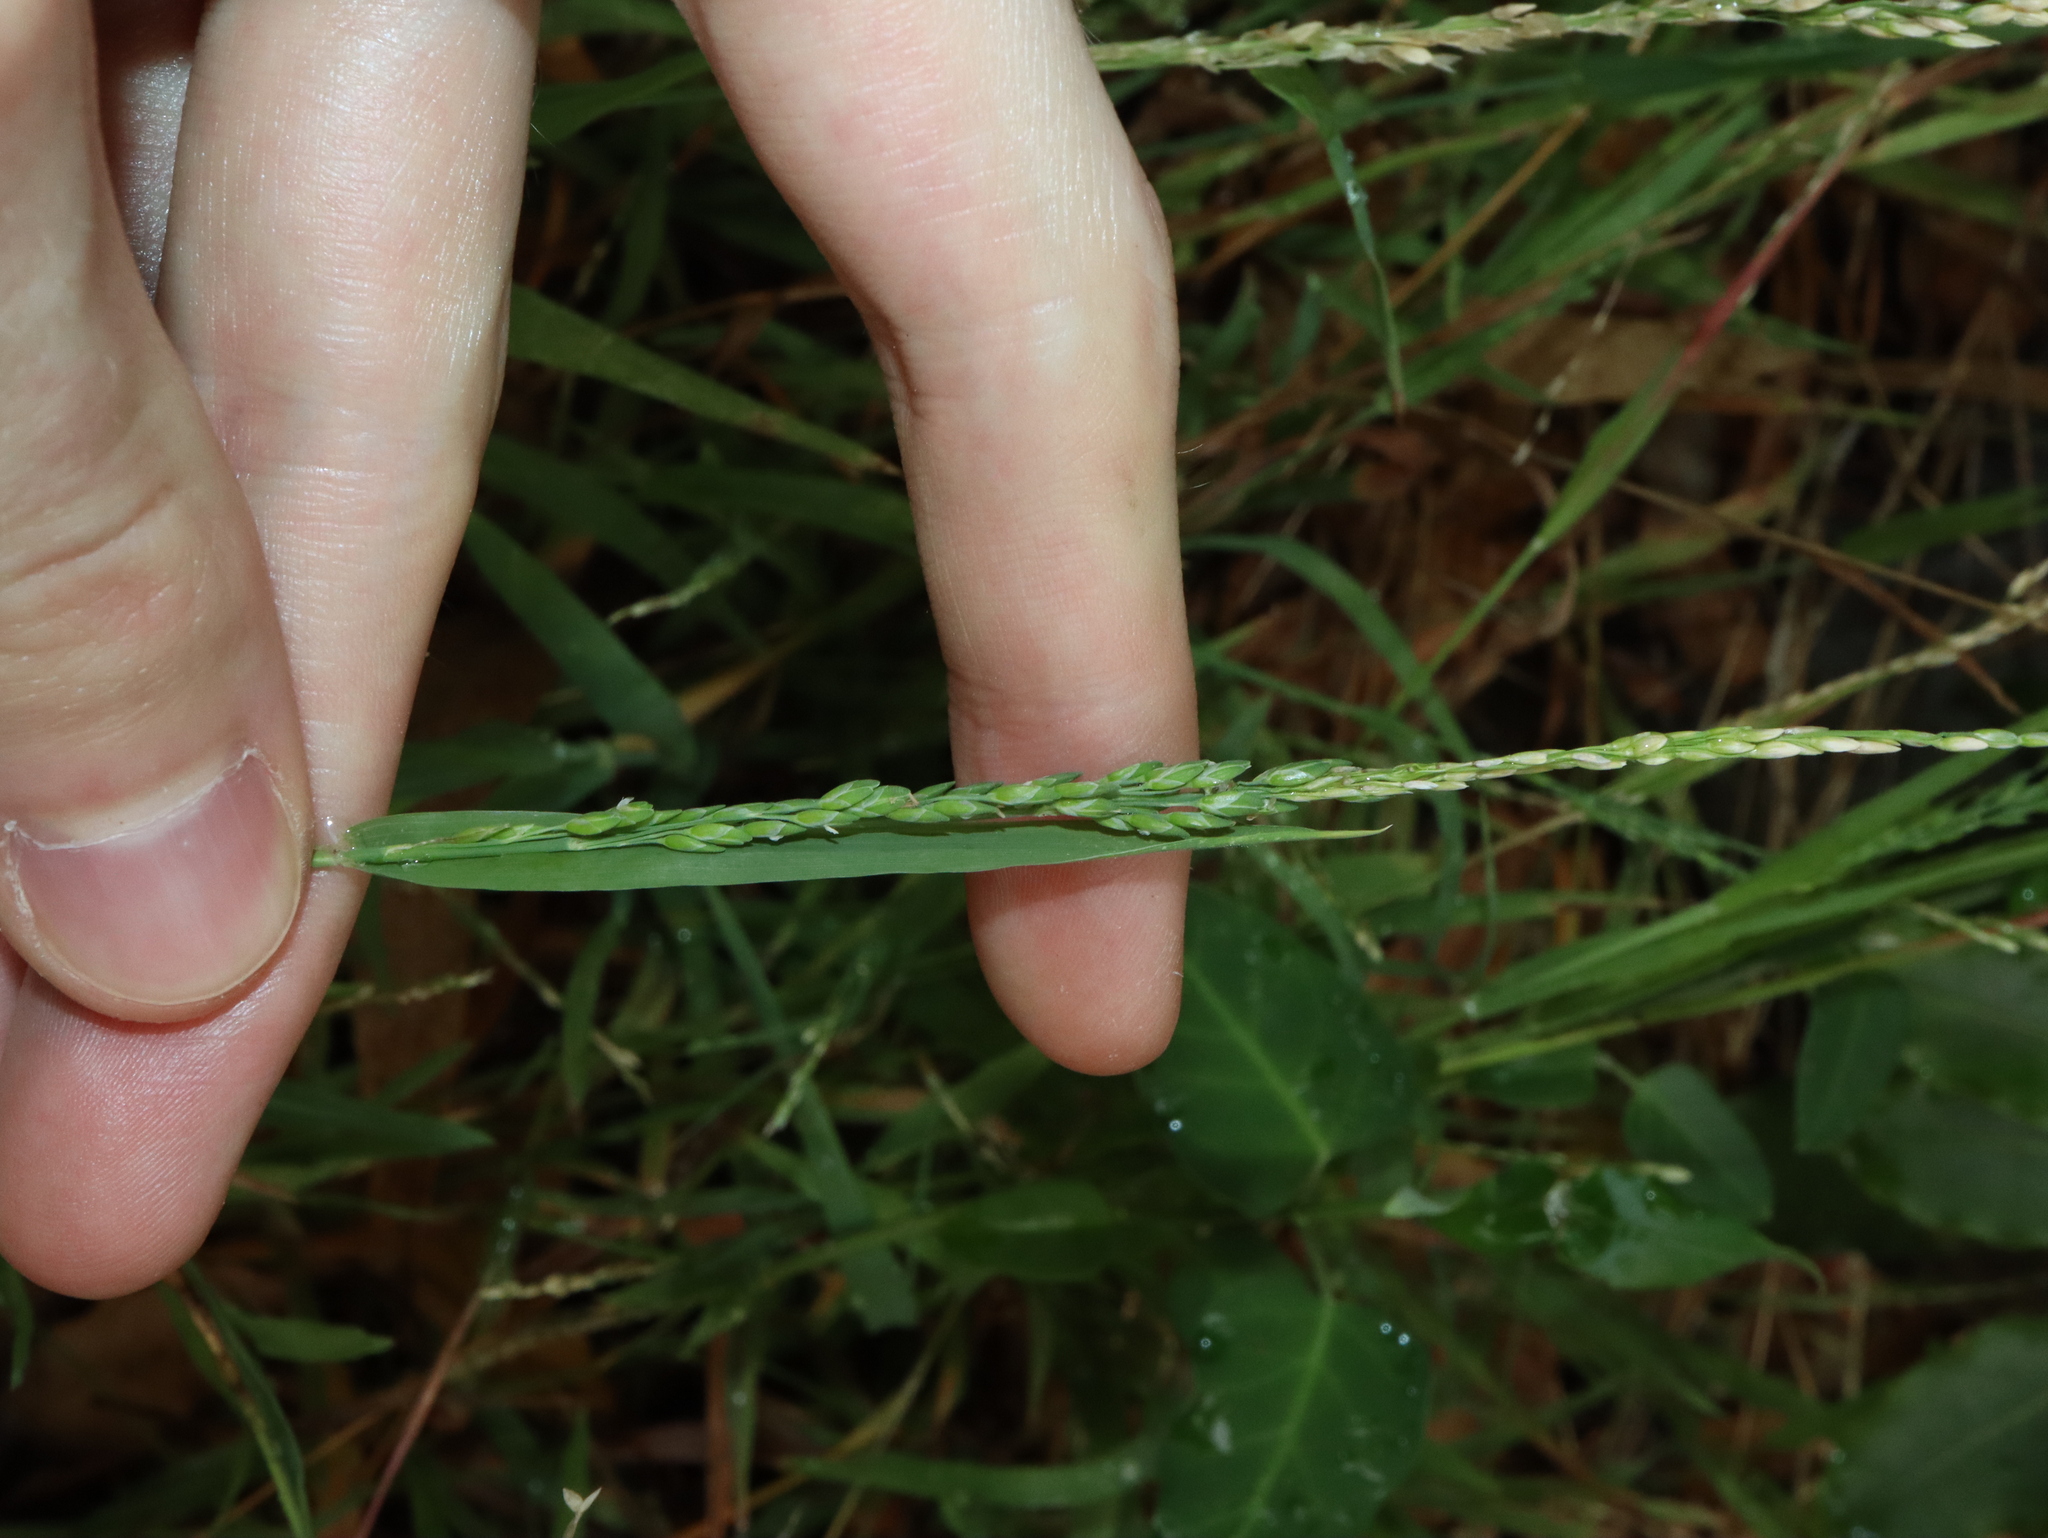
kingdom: Plantae
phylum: Tracheophyta
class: Liliopsida
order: Poales
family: Poaceae
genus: Ehrharta
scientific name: Ehrharta erecta
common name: Panic veldtgrass
